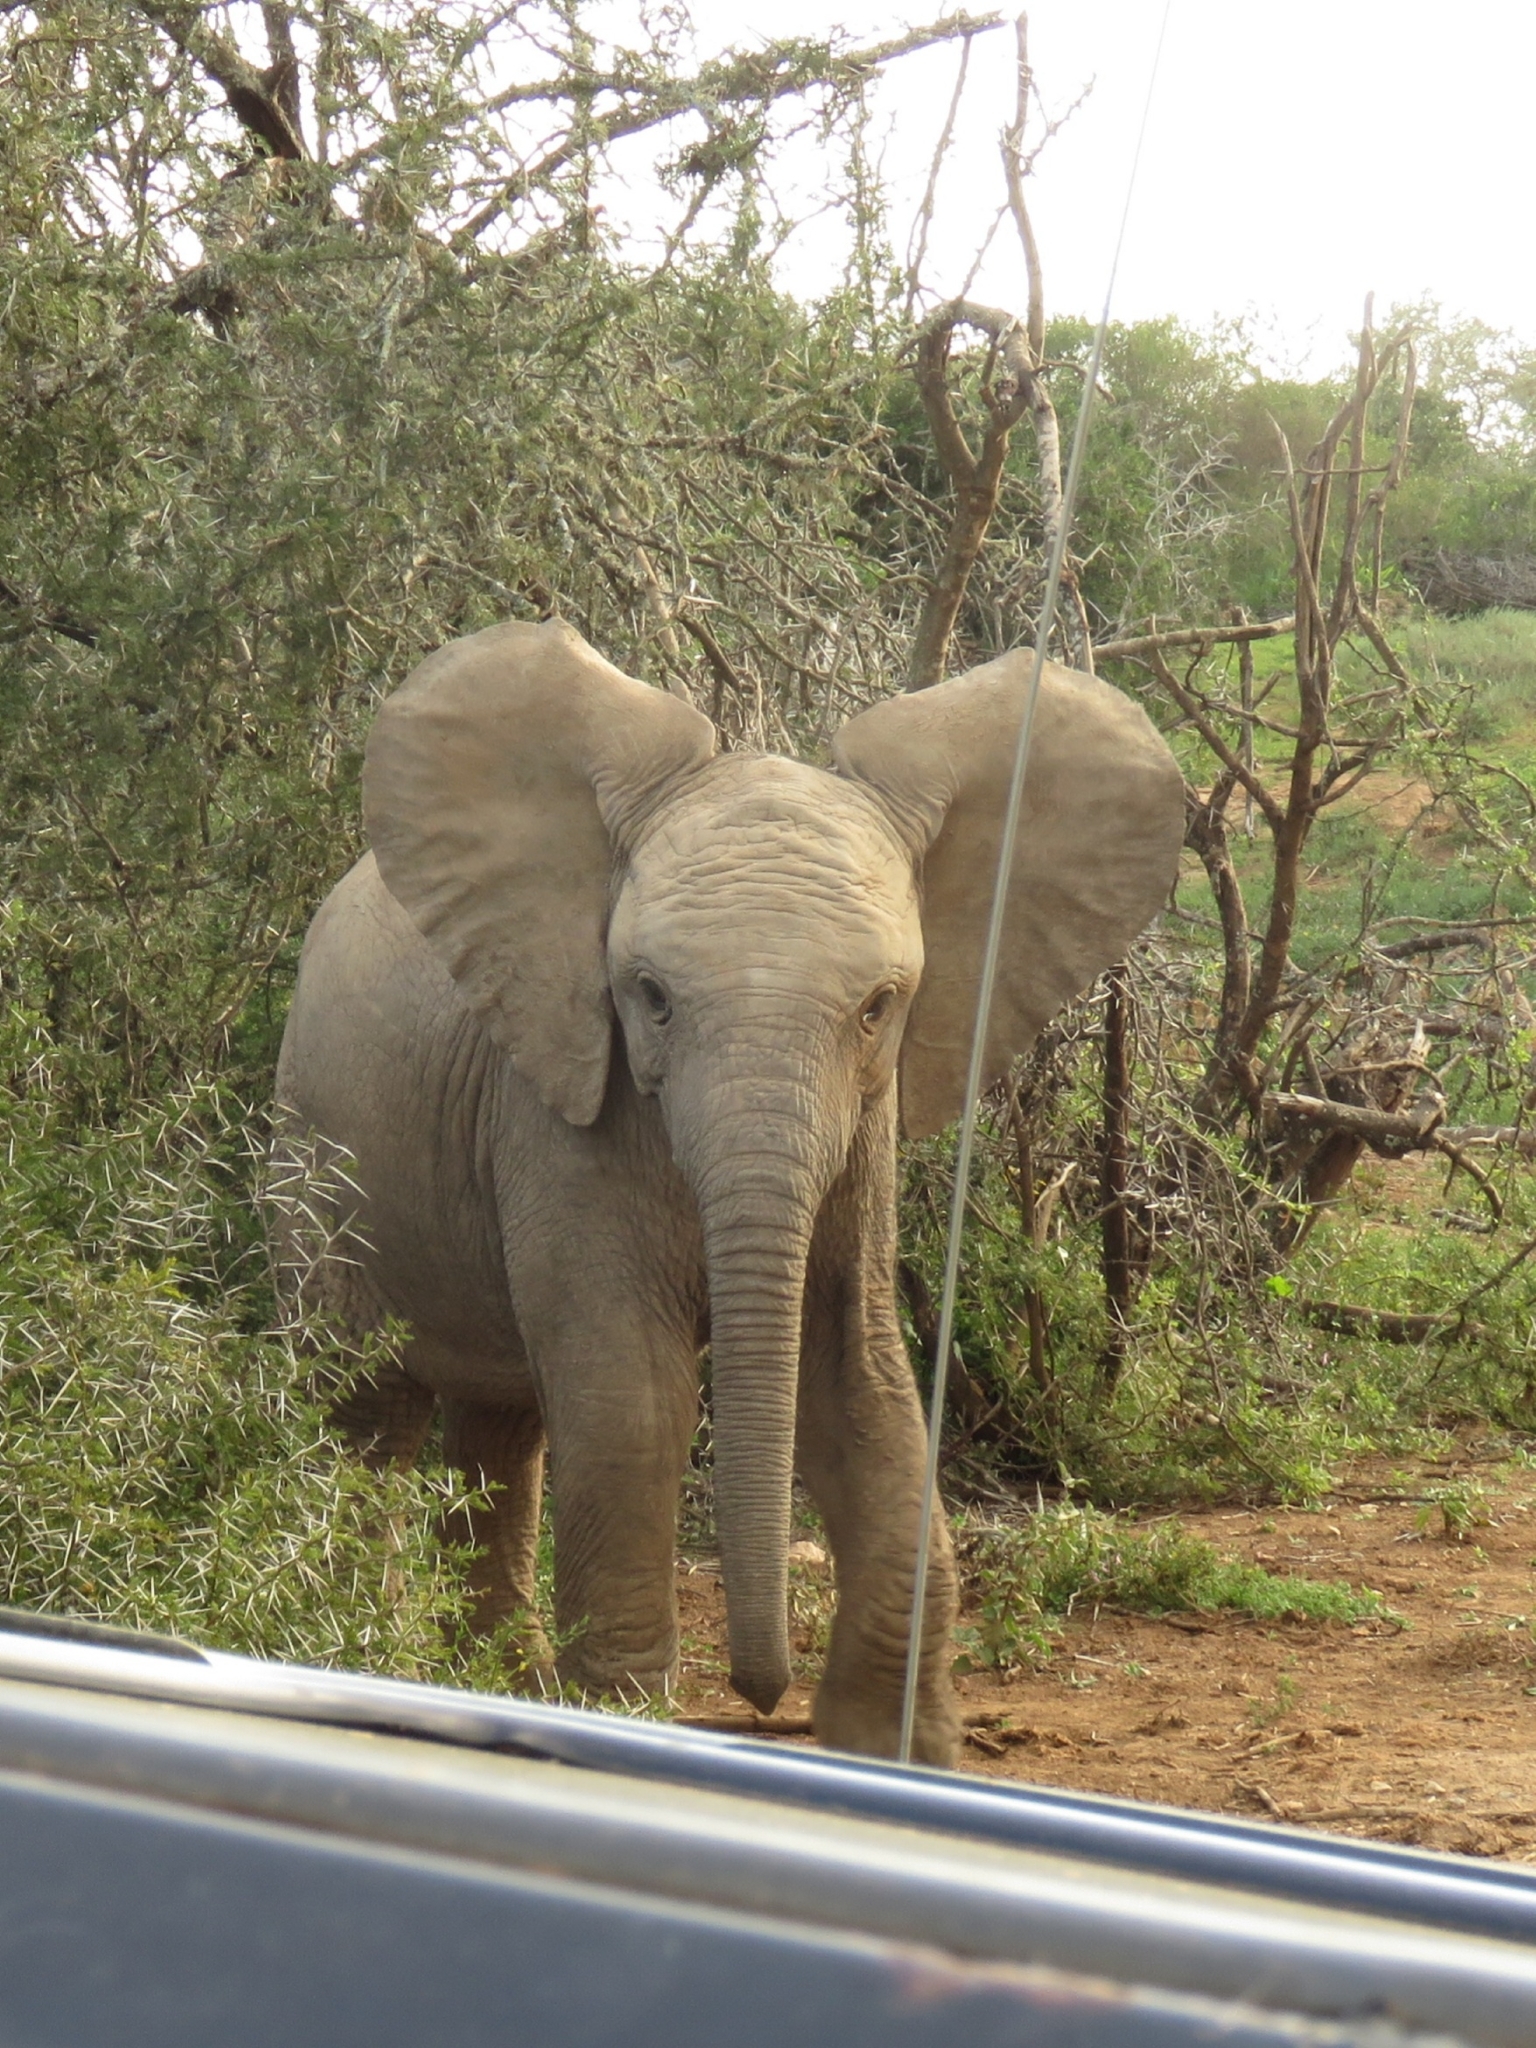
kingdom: Animalia
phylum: Chordata
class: Mammalia
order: Proboscidea
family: Elephantidae
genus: Loxodonta
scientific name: Loxodonta africana
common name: African elephant
